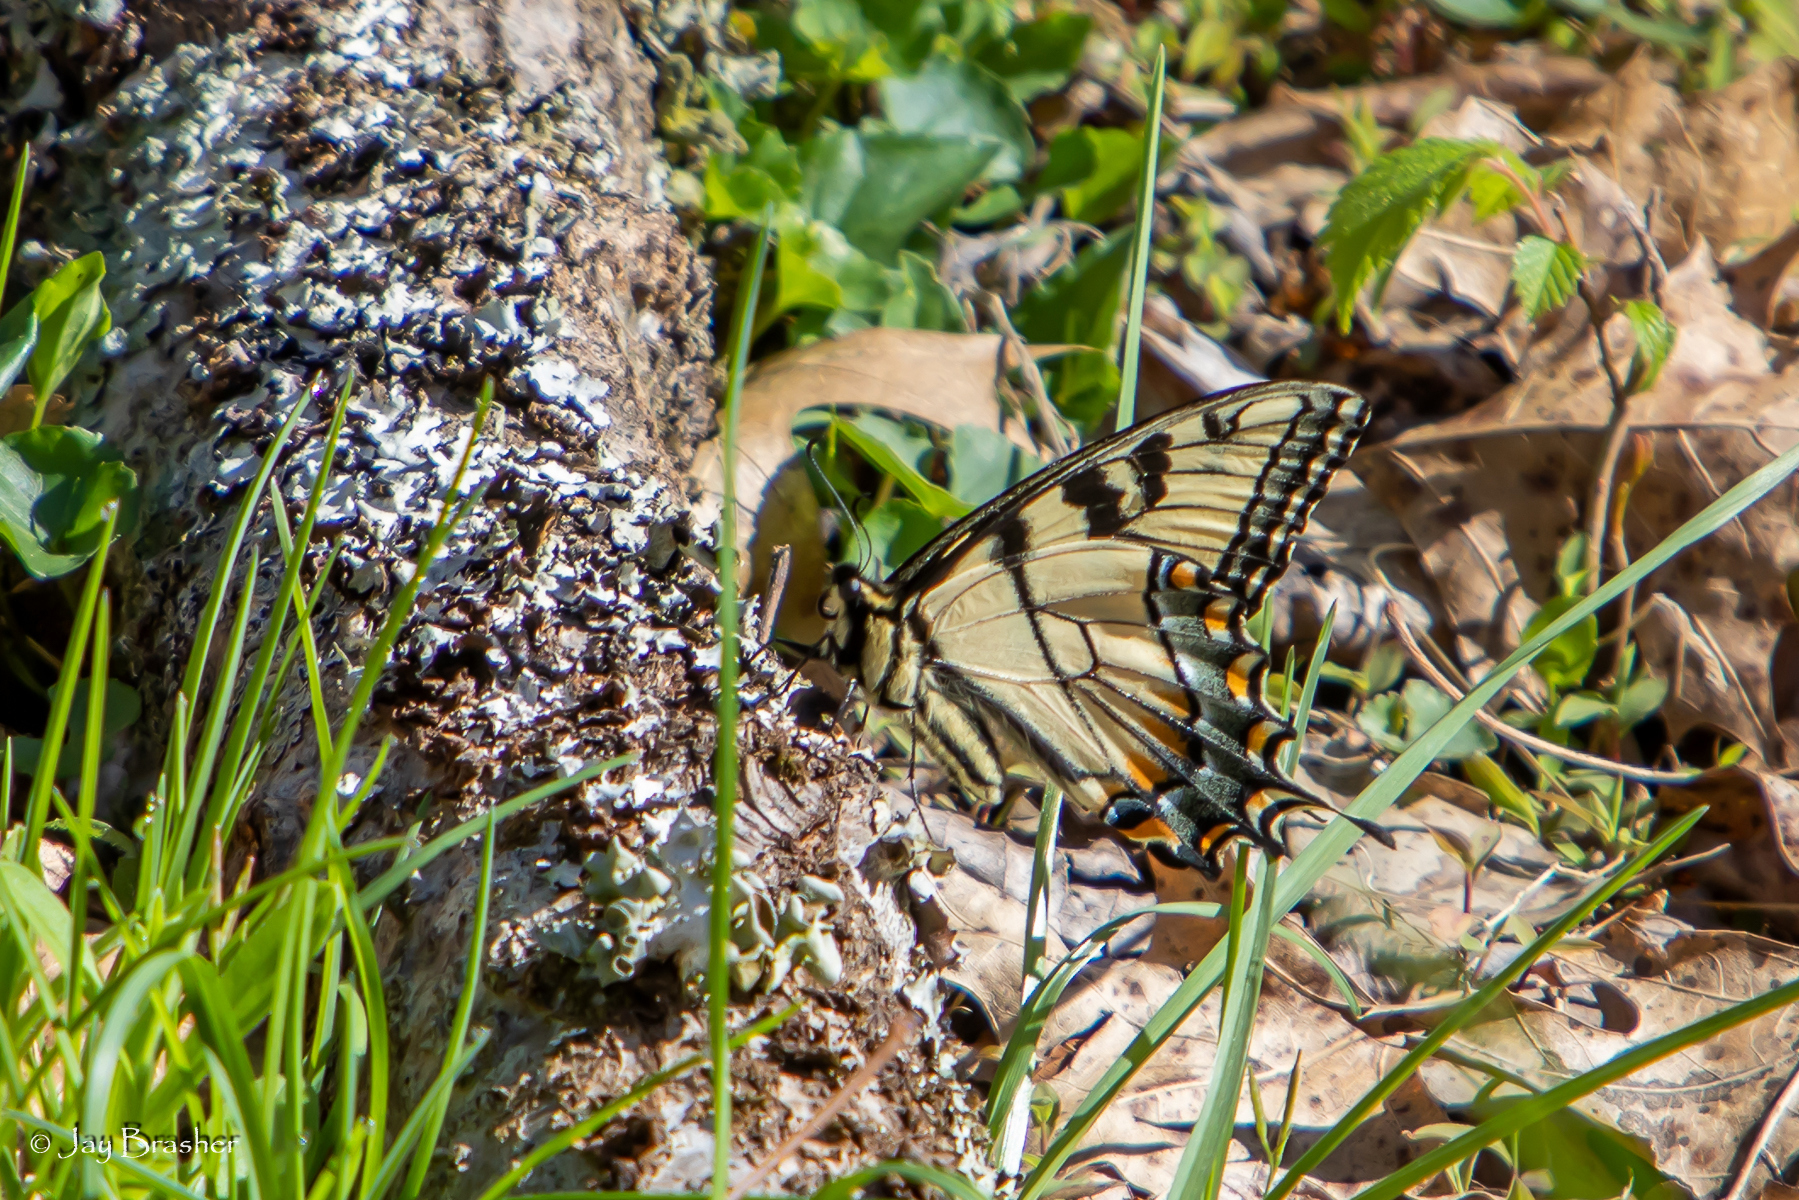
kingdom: Animalia
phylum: Arthropoda
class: Insecta
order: Lepidoptera
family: Papilionidae
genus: Papilio
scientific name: Papilio glaucus
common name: Tiger swallowtail
